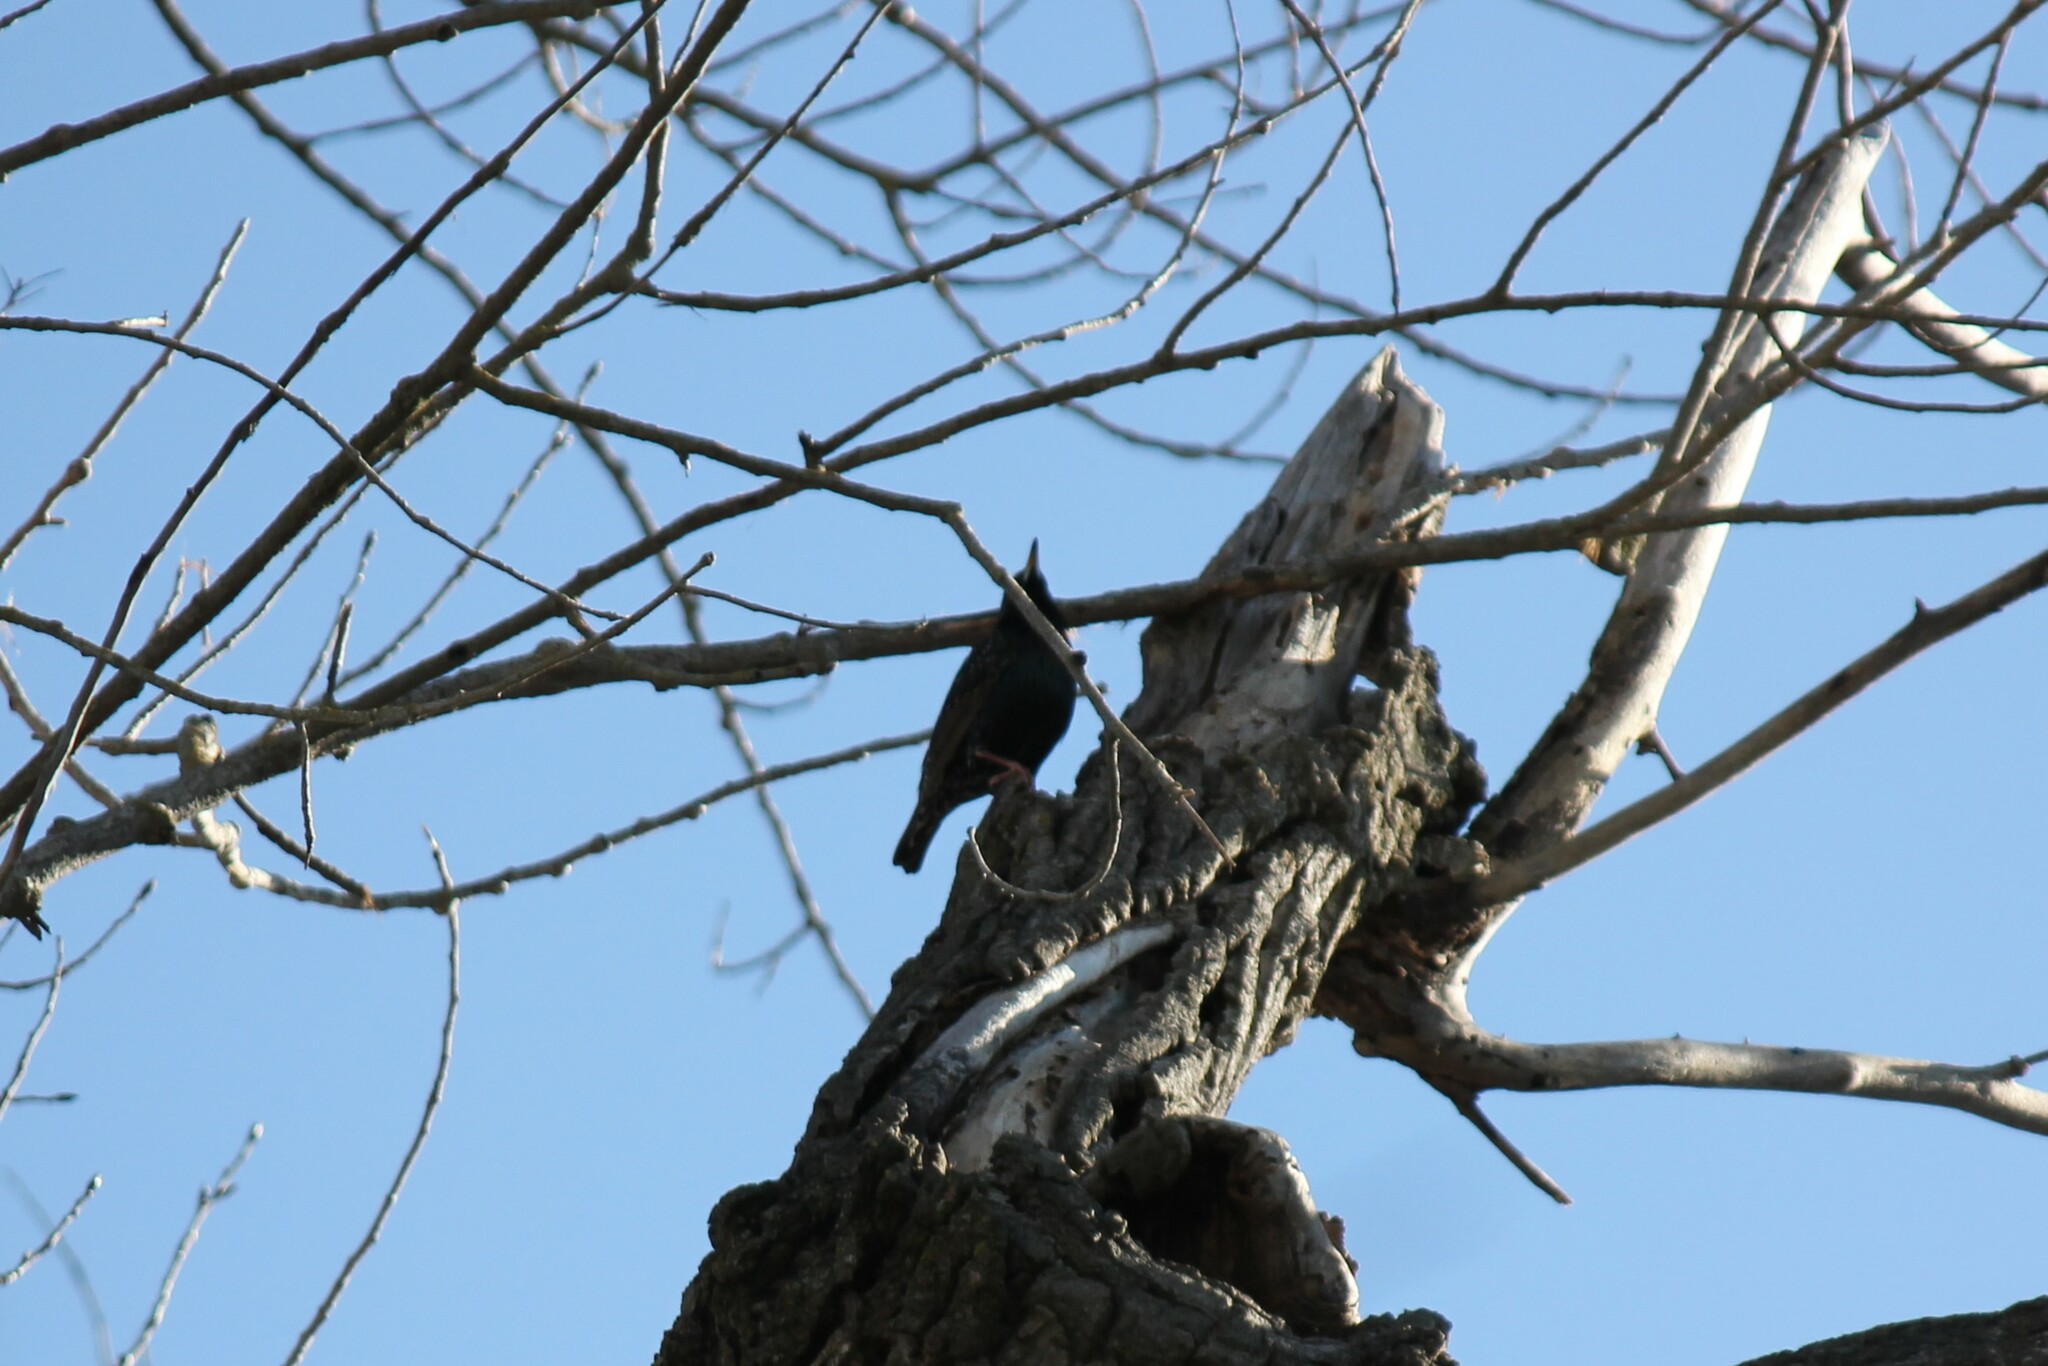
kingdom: Animalia
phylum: Chordata
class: Aves
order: Passeriformes
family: Sturnidae
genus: Sturnus
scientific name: Sturnus vulgaris
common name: Common starling
